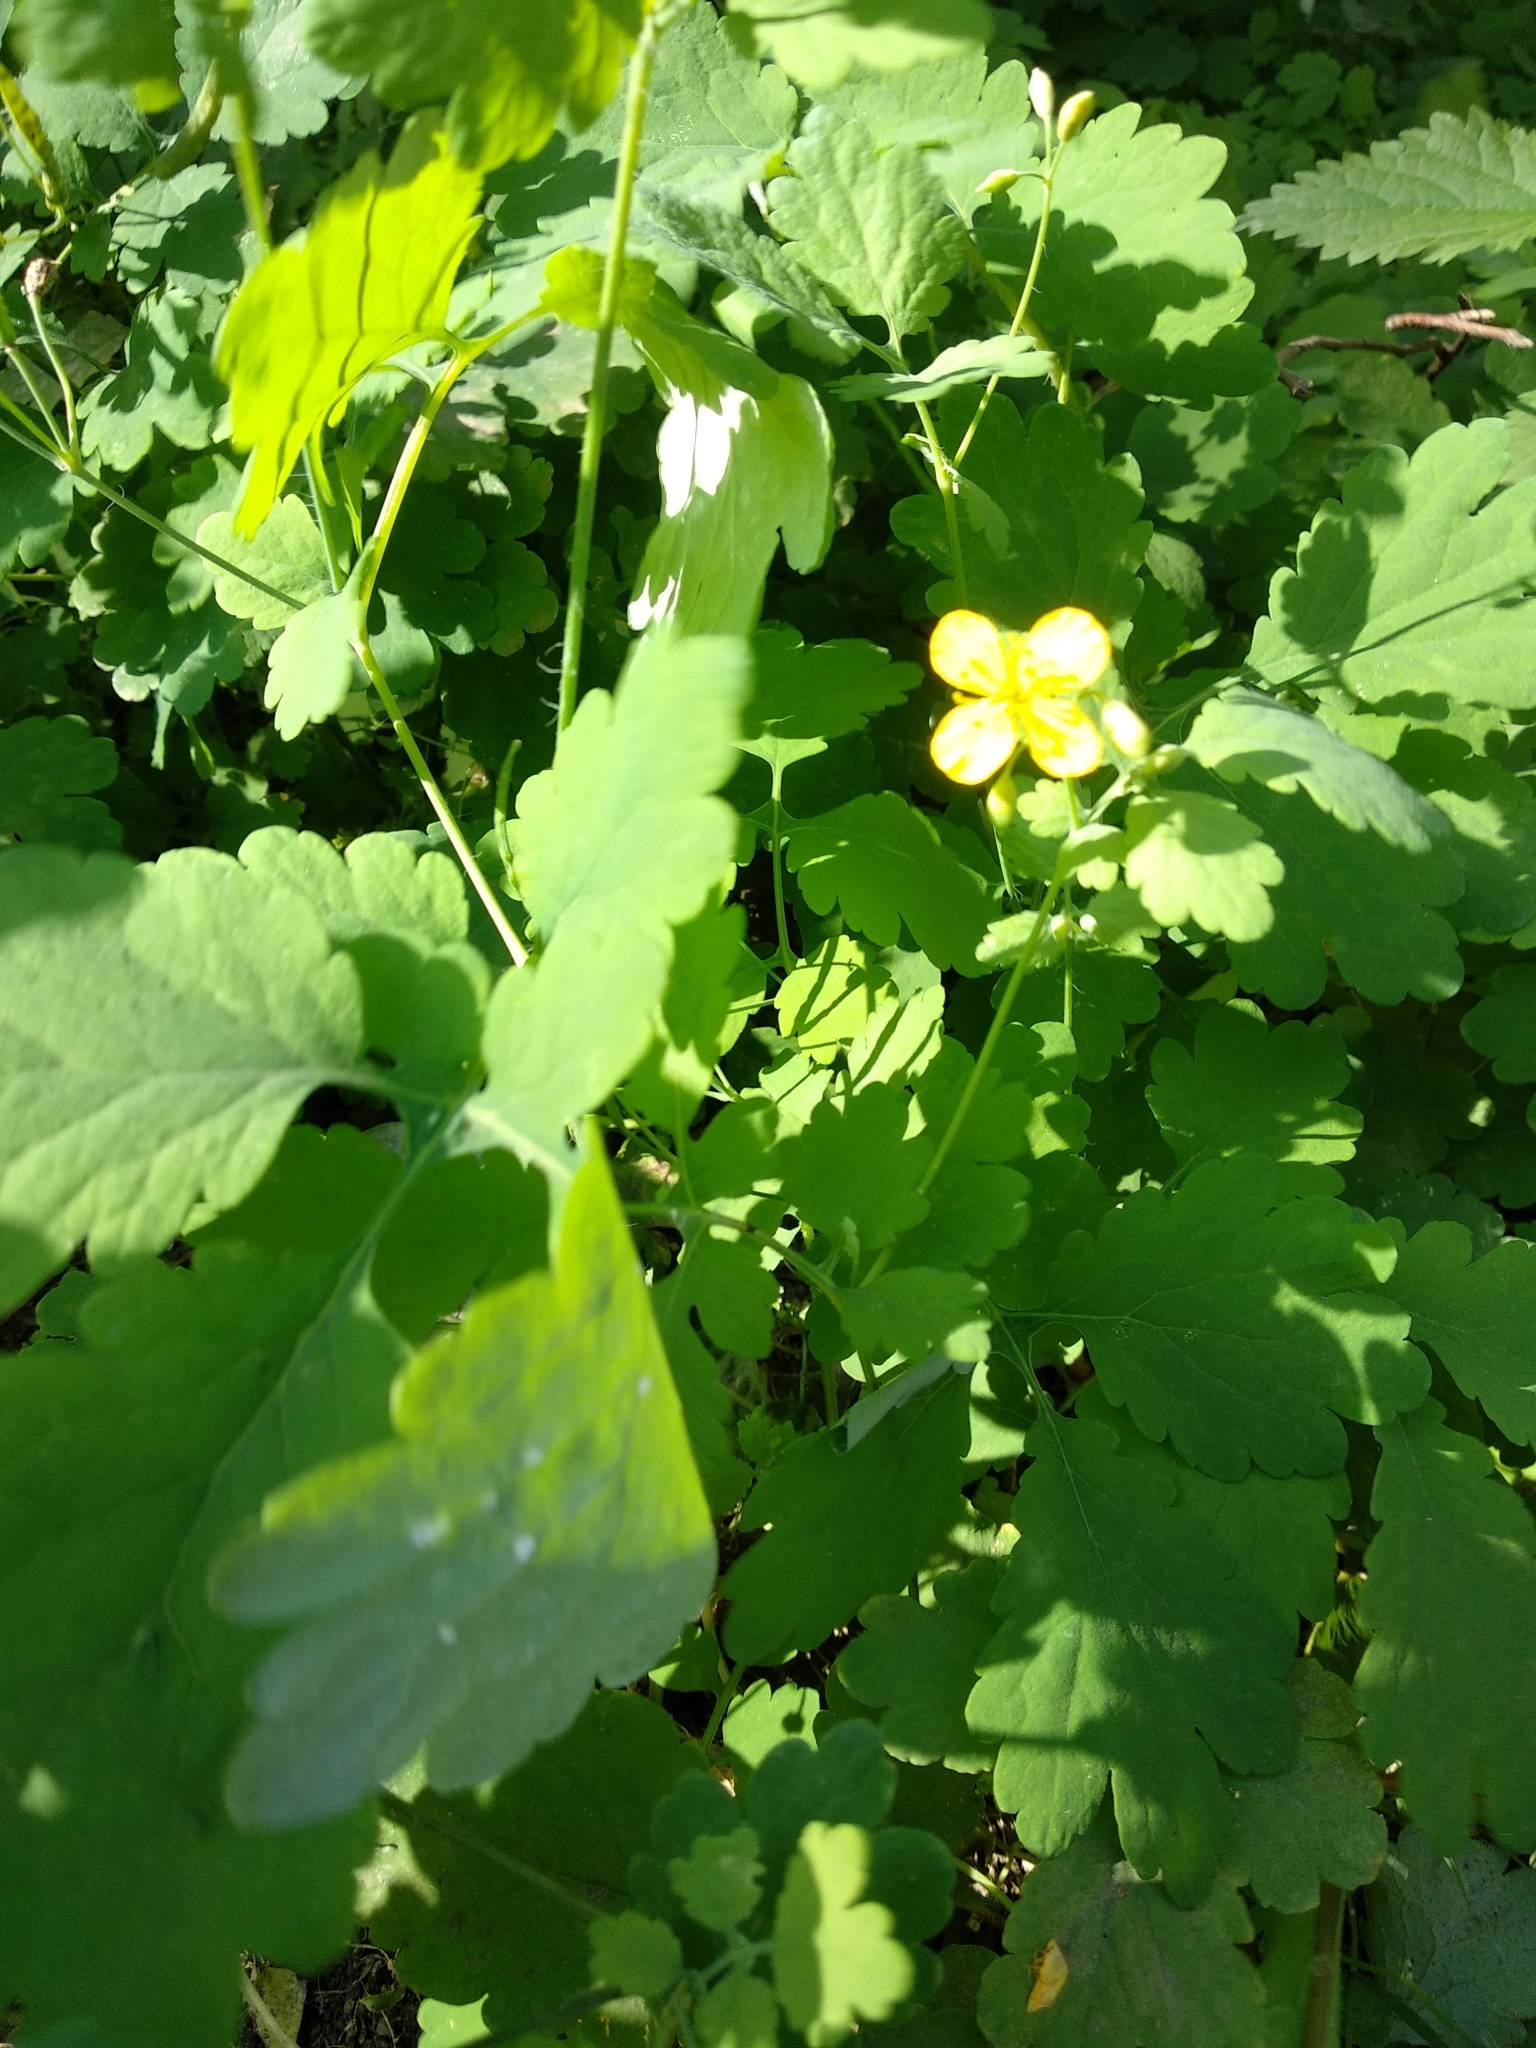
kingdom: Plantae
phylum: Tracheophyta
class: Magnoliopsida
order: Ranunculales
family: Papaveraceae
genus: Chelidonium
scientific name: Chelidonium majus
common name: Greater celandine
